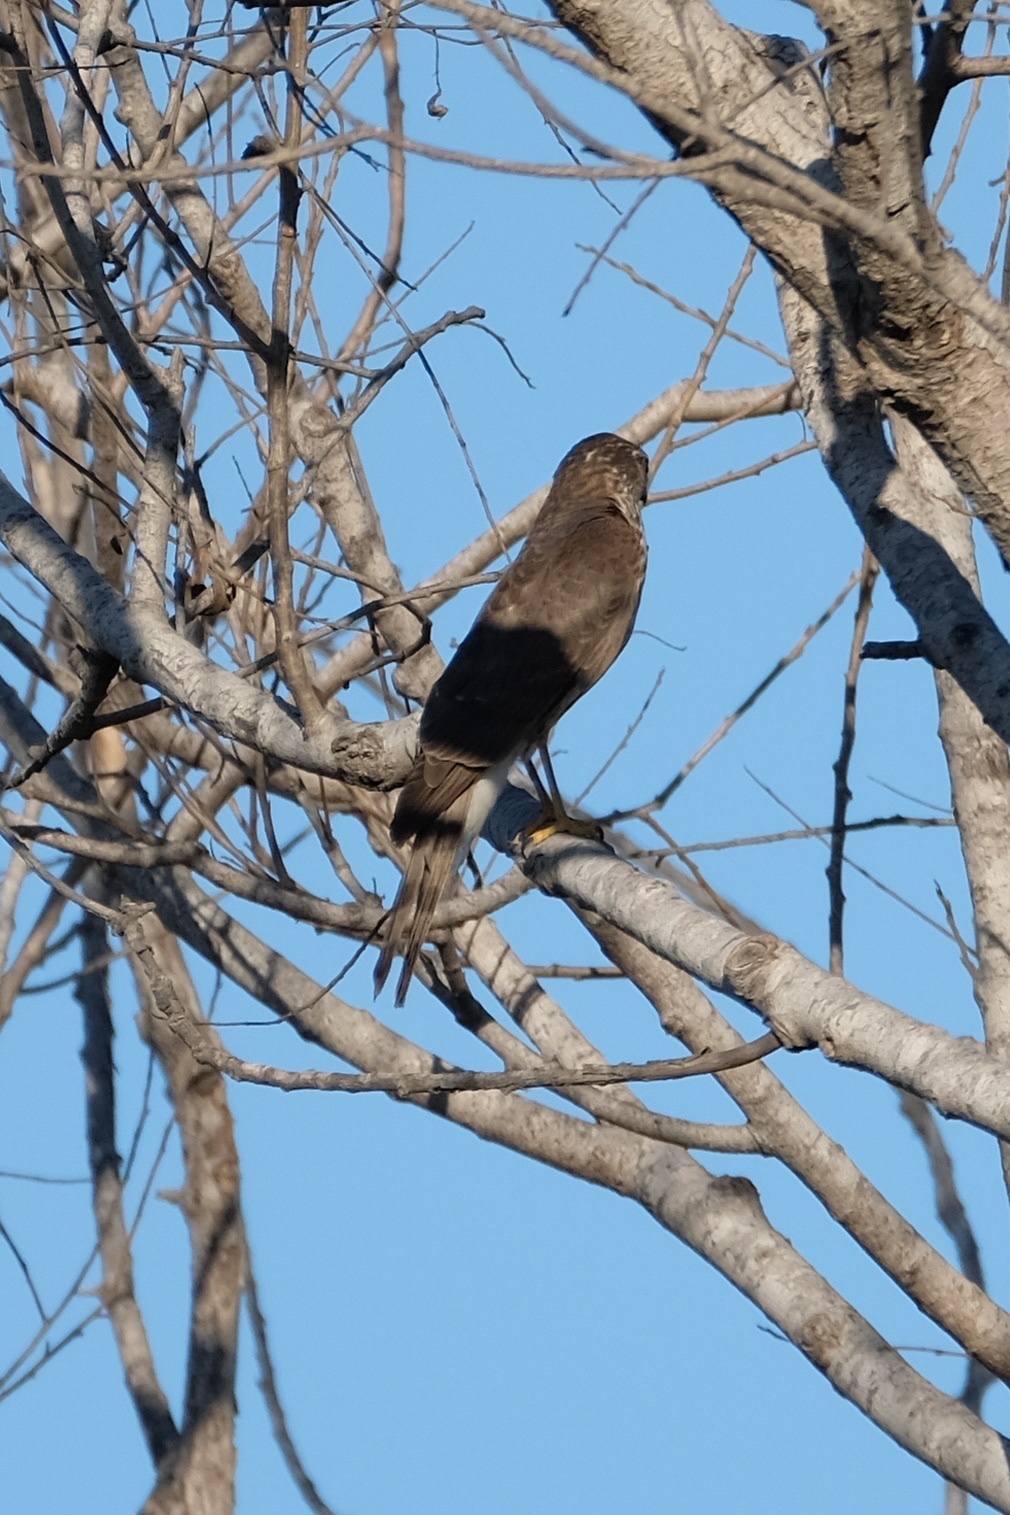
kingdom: Animalia
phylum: Chordata
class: Aves
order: Accipitriformes
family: Accipitridae
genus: Accipiter
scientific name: Accipiter striatus
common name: Sharp-shinned hawk
